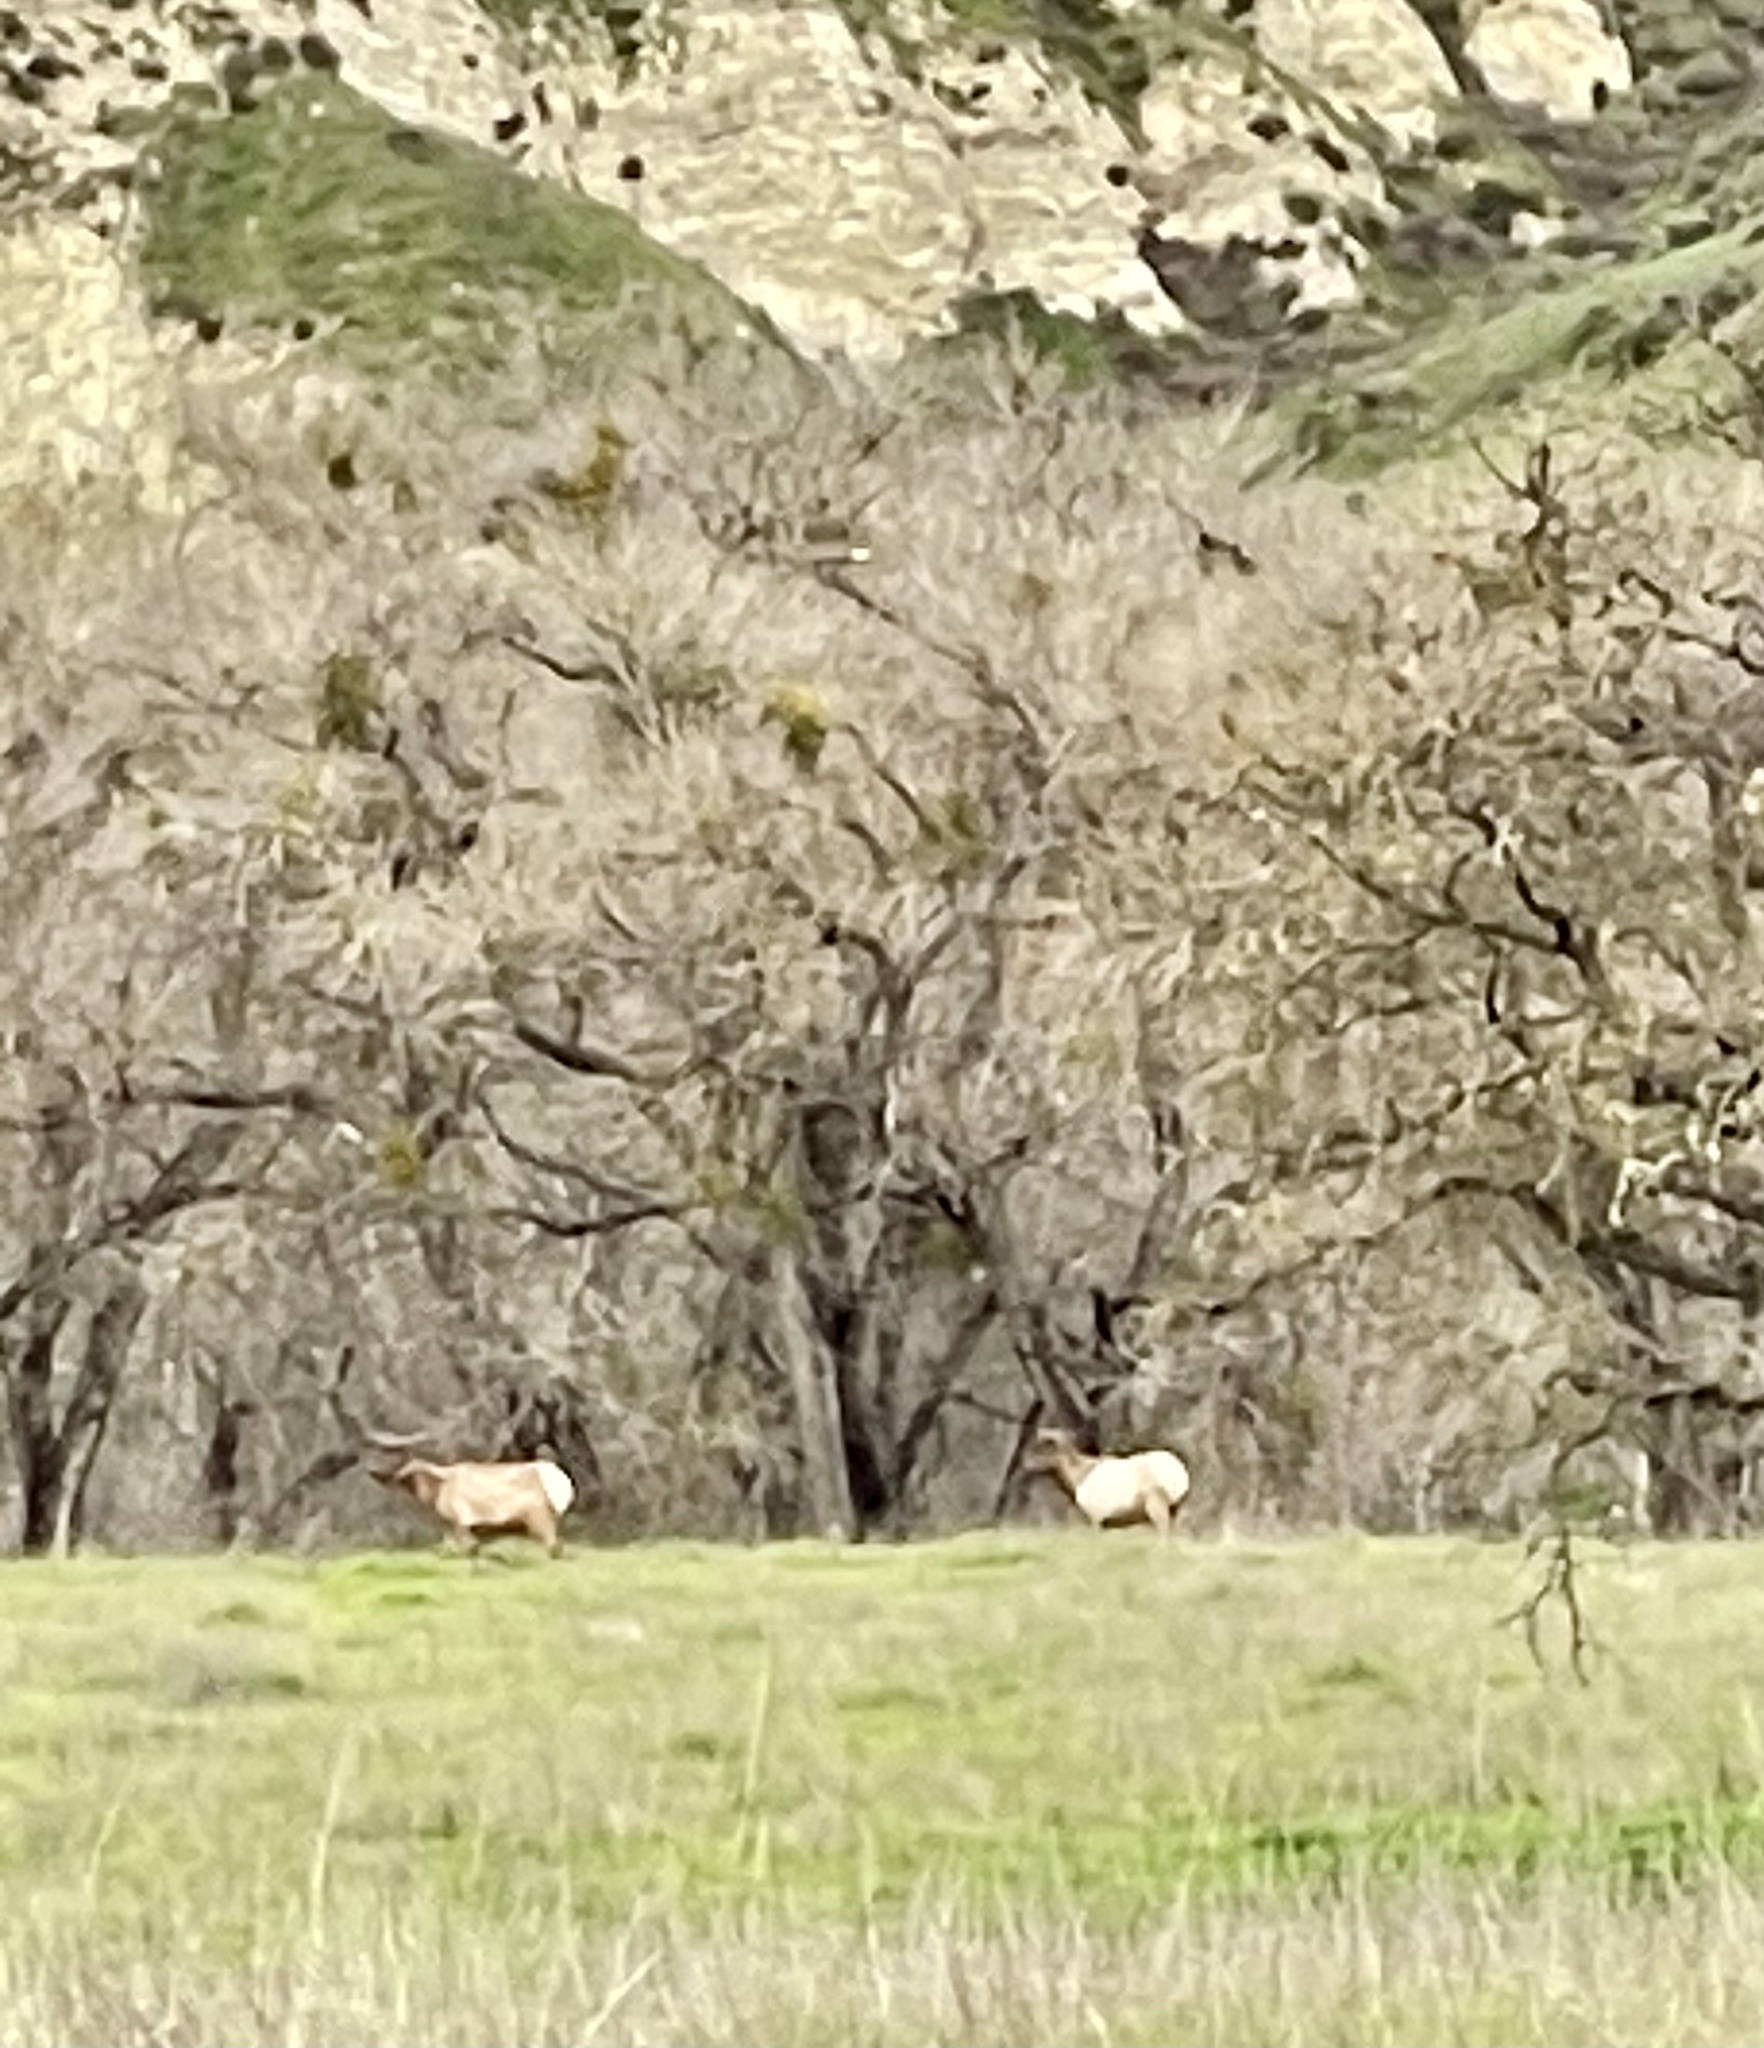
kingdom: Animalia
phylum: Chordata
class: Mammalia
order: Artiodactyla
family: Cervidae
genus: Cervus
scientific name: Cervus elaphus
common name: Red deer
